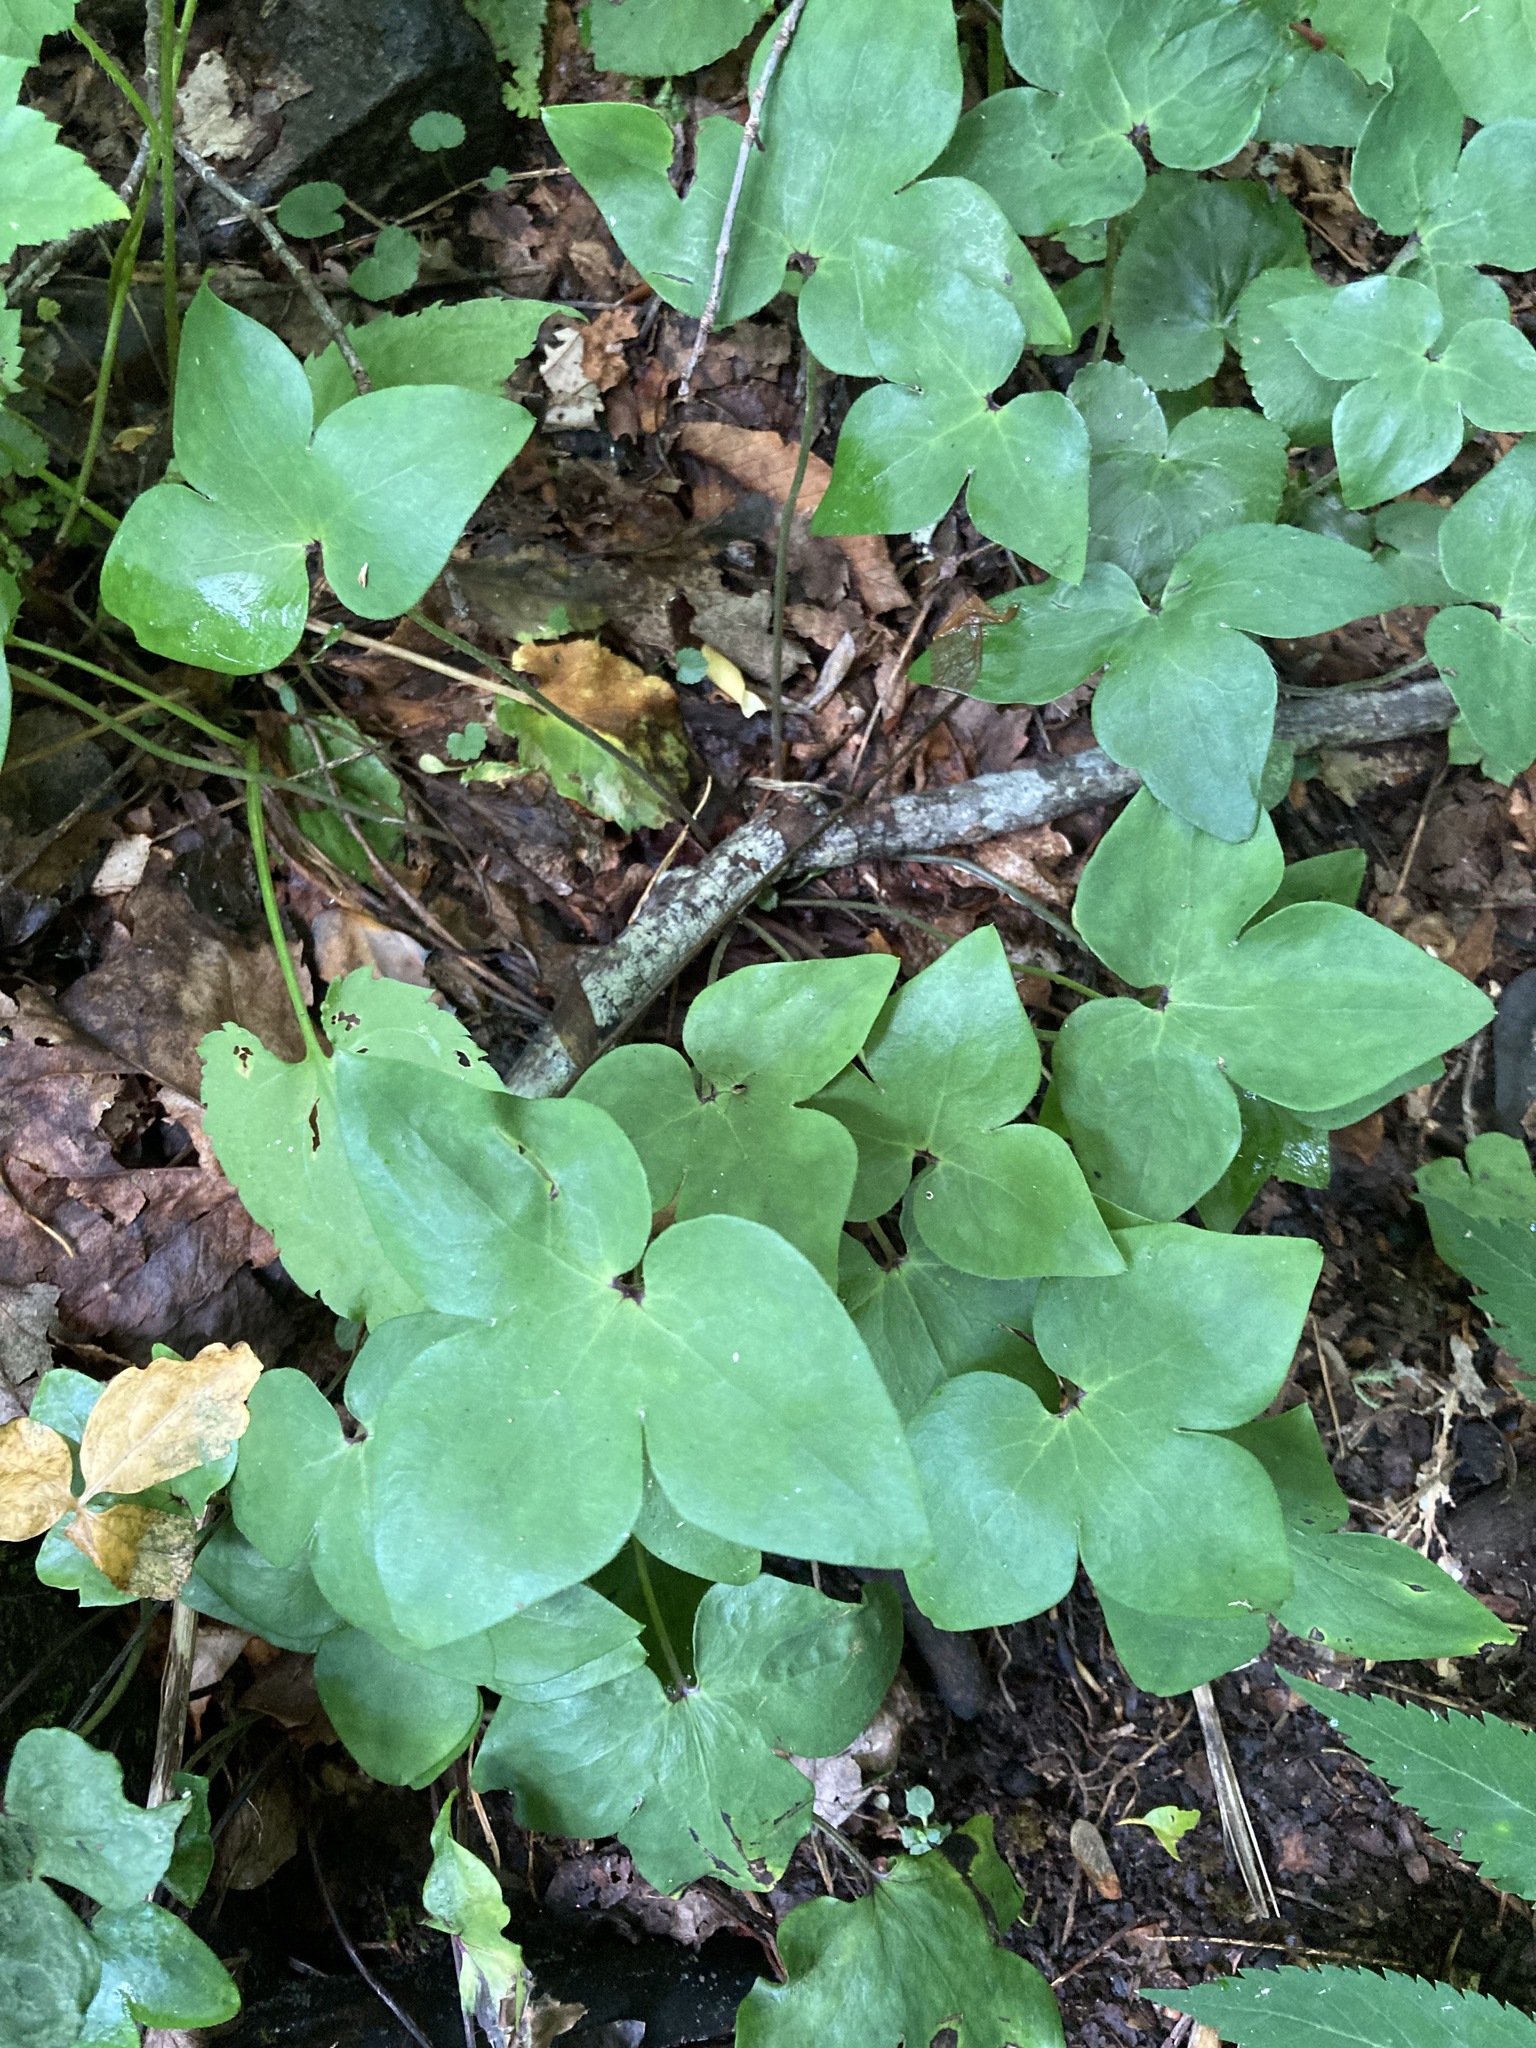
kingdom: Plantae
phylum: Tracheophyta
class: Magnoliopsida
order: Ranunculales
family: Ranunculaceae
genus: Hepatica
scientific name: Hepatica acutiloba
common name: Sharp-lobed hepatica
